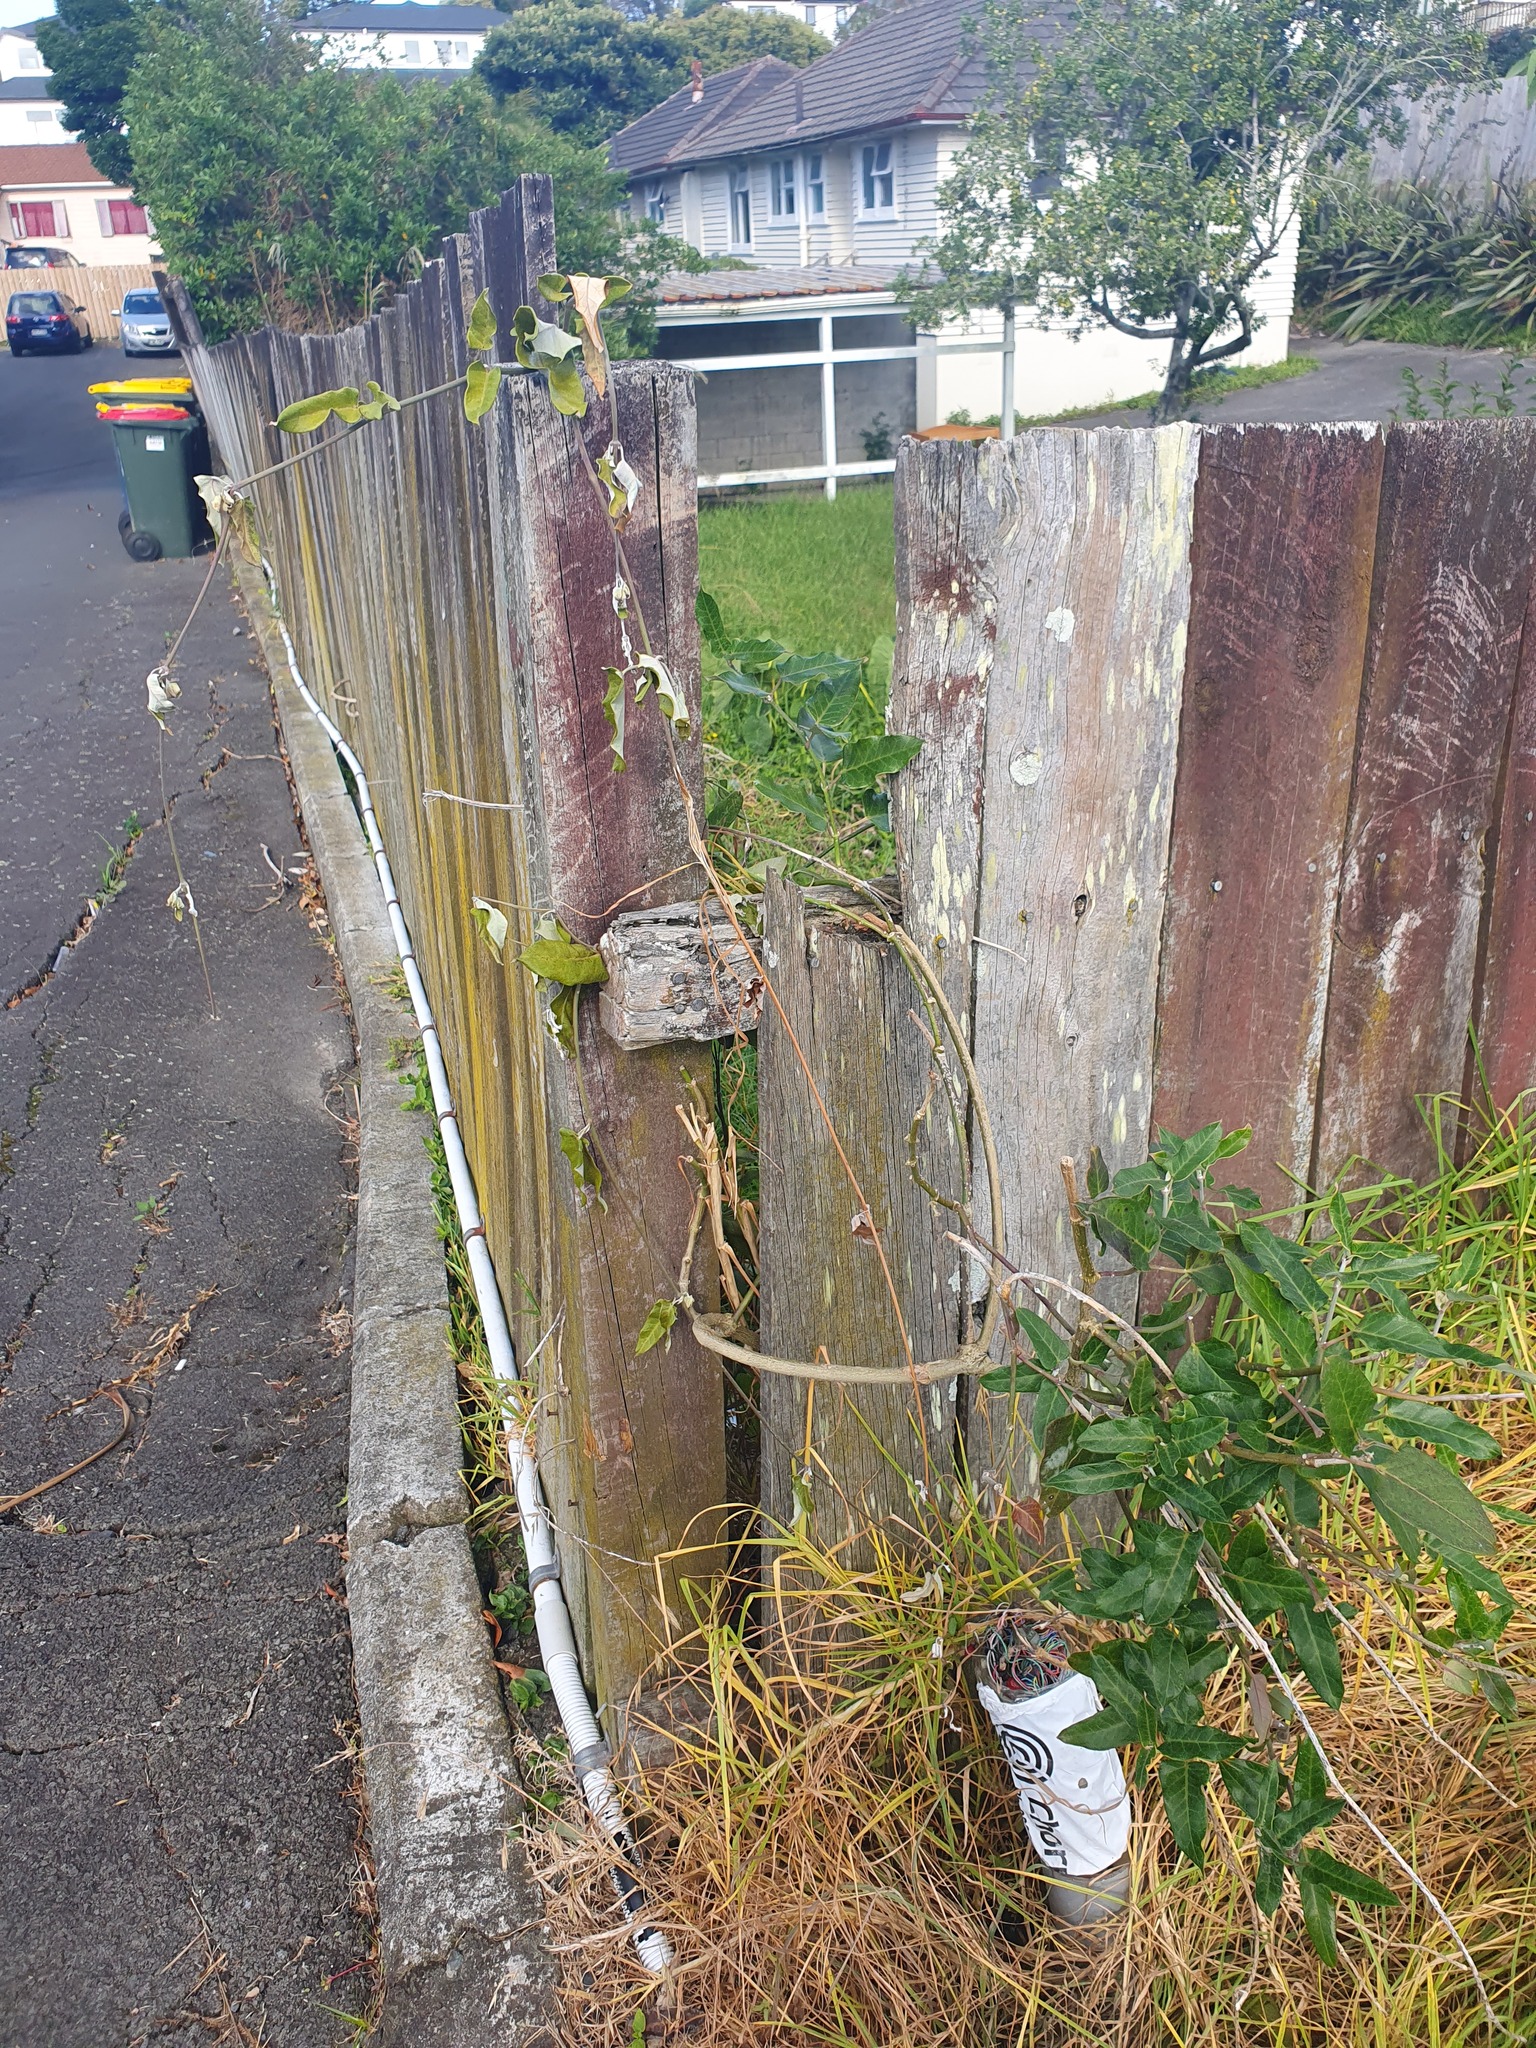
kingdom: Plantae
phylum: Tracheophyta
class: Magnoliopsida
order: Gentianales
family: Apocynaceae
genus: Araujia
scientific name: Araujia sericifera
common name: White bladderflower
